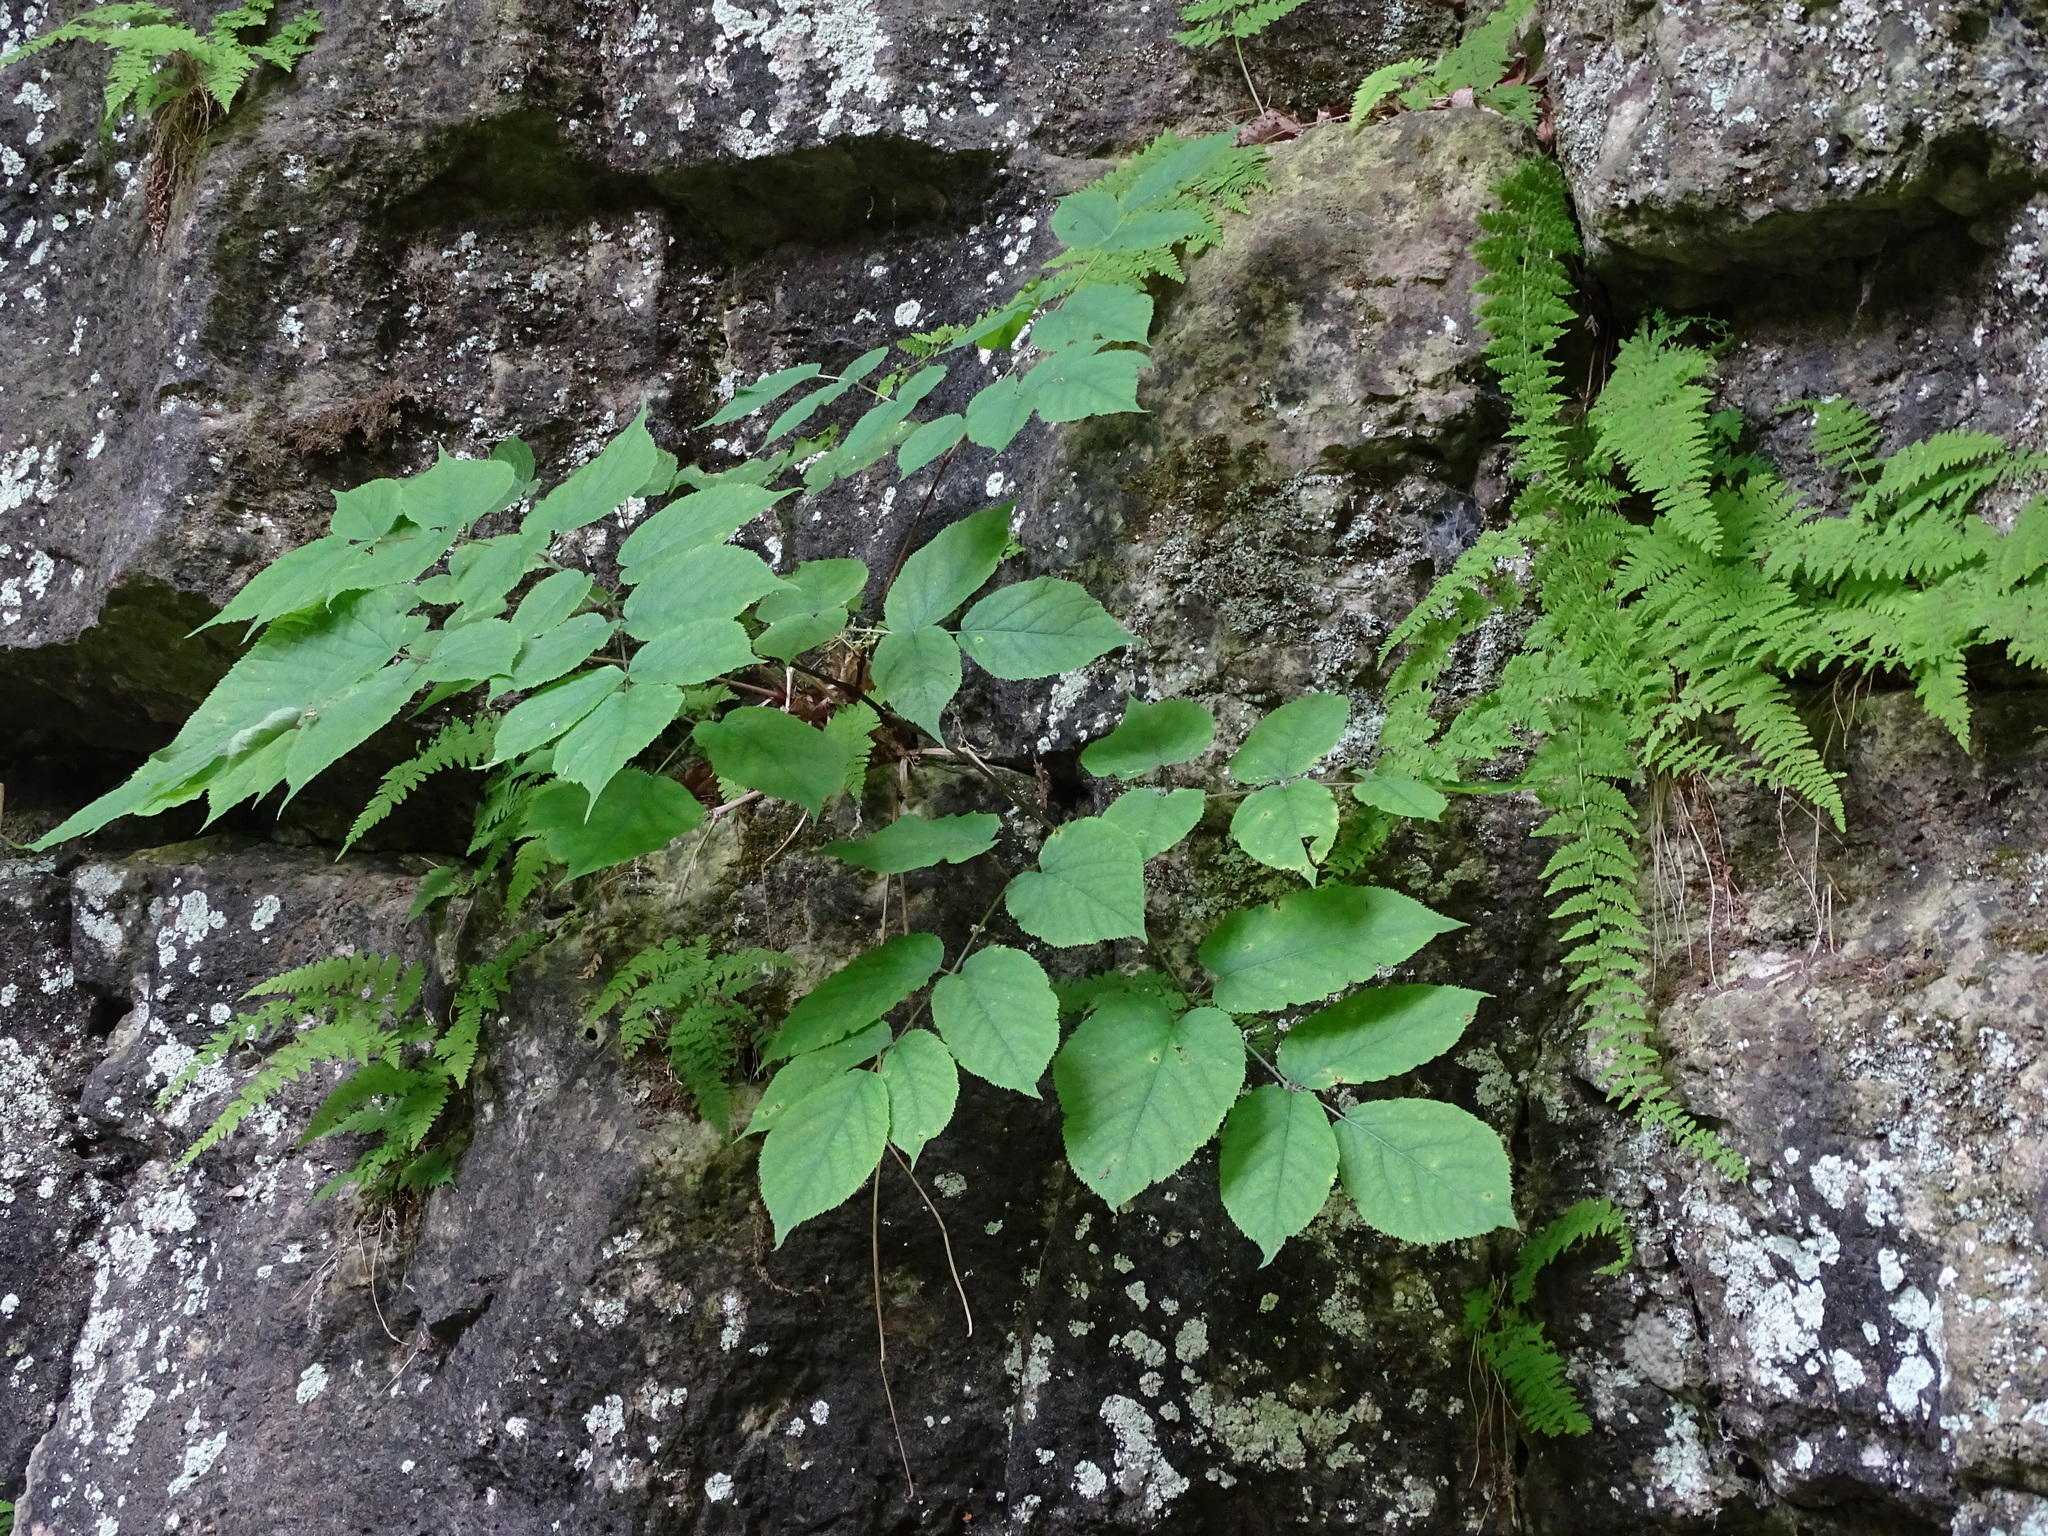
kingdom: Plantae
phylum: Tracheophyta
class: Magnoliopsida
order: Apiales
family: Araliaceae
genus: Aralia
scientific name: Aralia racemosa
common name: American-spikenard
